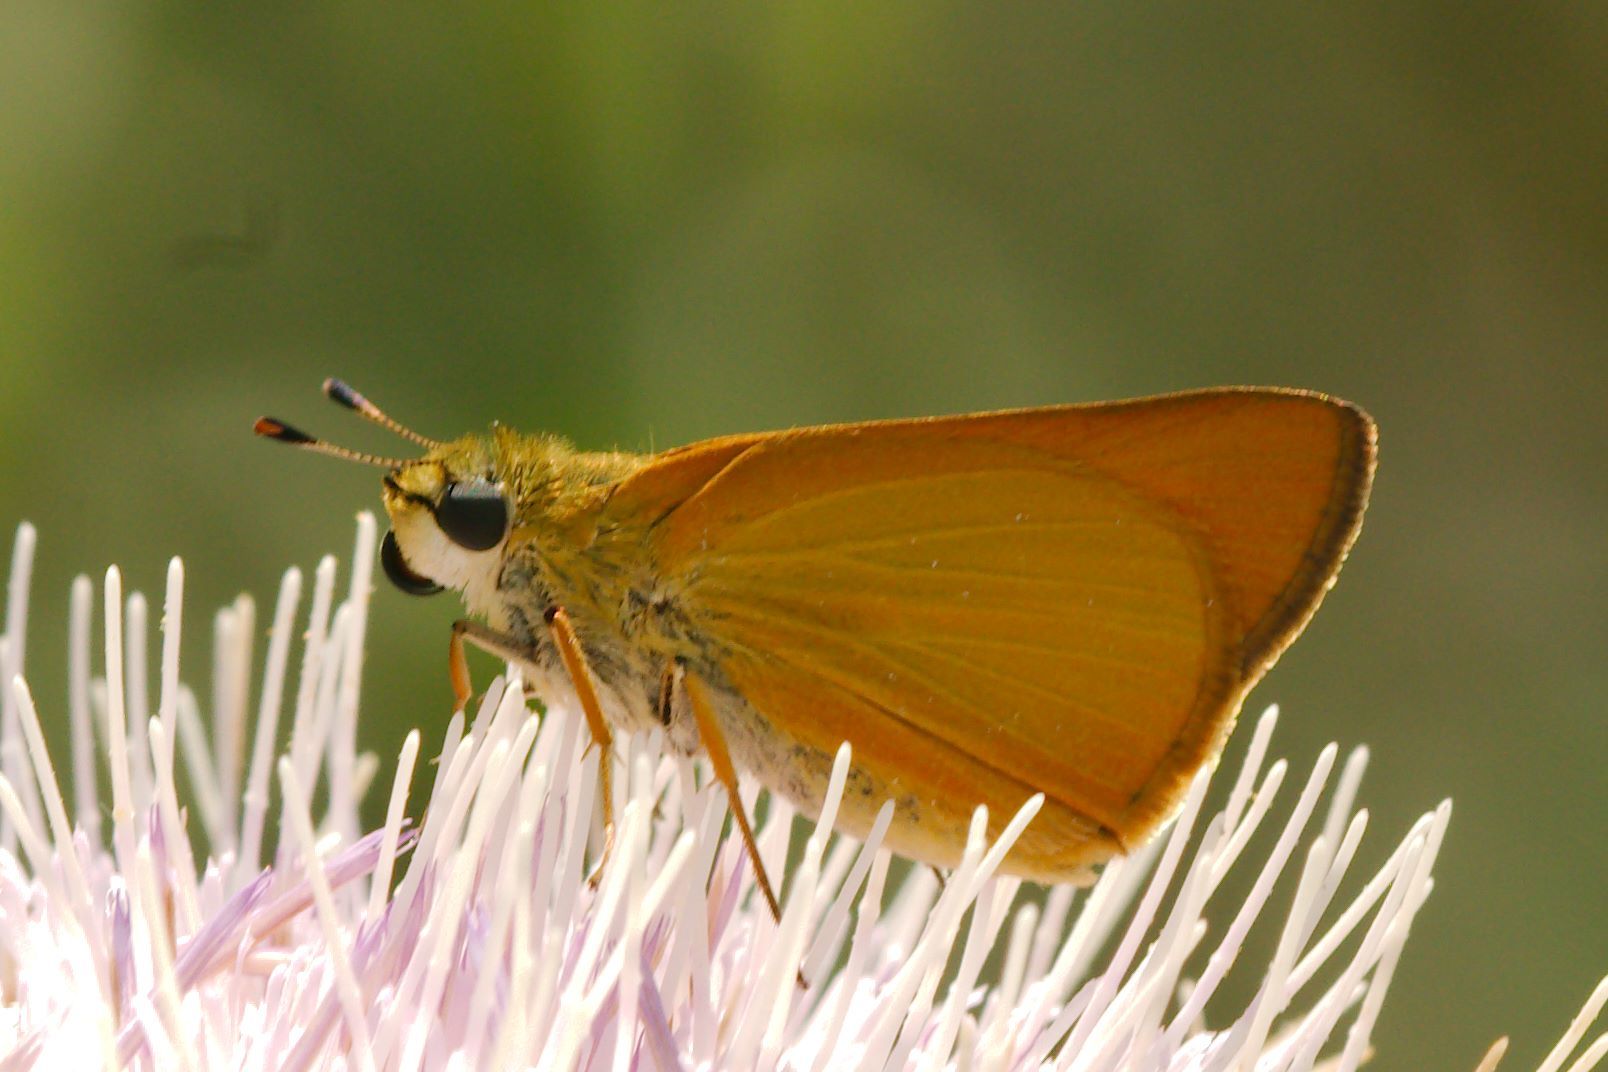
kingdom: Animalia
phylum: Arthropoda
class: Insecta
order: Lepidoptera
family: Hesperiidae
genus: Atrytone
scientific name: Atrytone delaware
